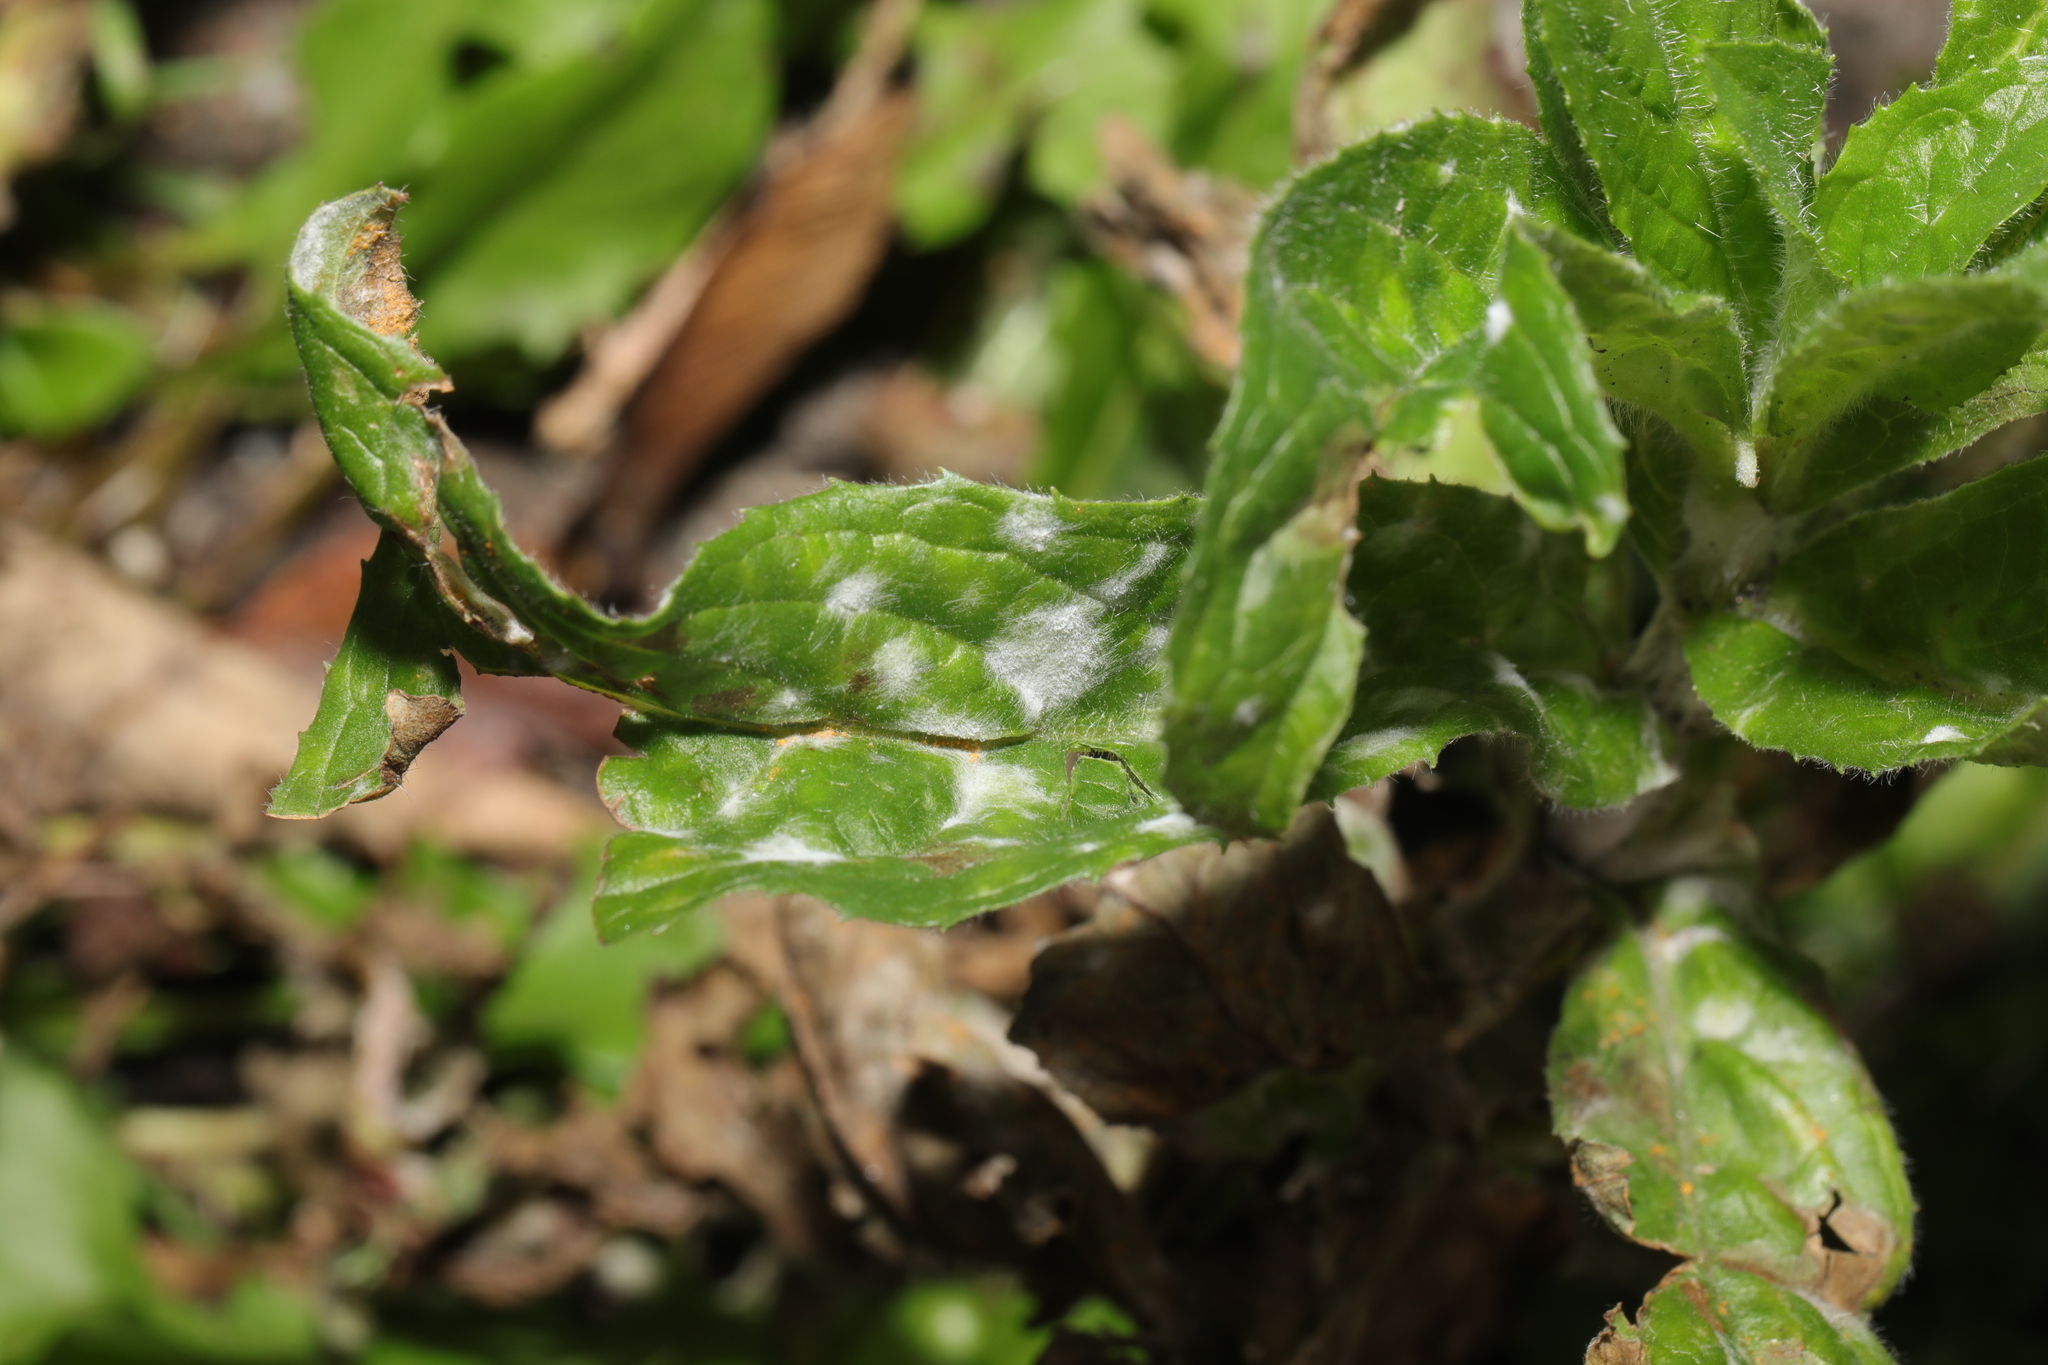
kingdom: Fungi
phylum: Ascomycota
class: Leotiomycetes
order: Helotiales
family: Erysiphaceae
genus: Podosphaera
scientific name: Podosphaera epilobii
